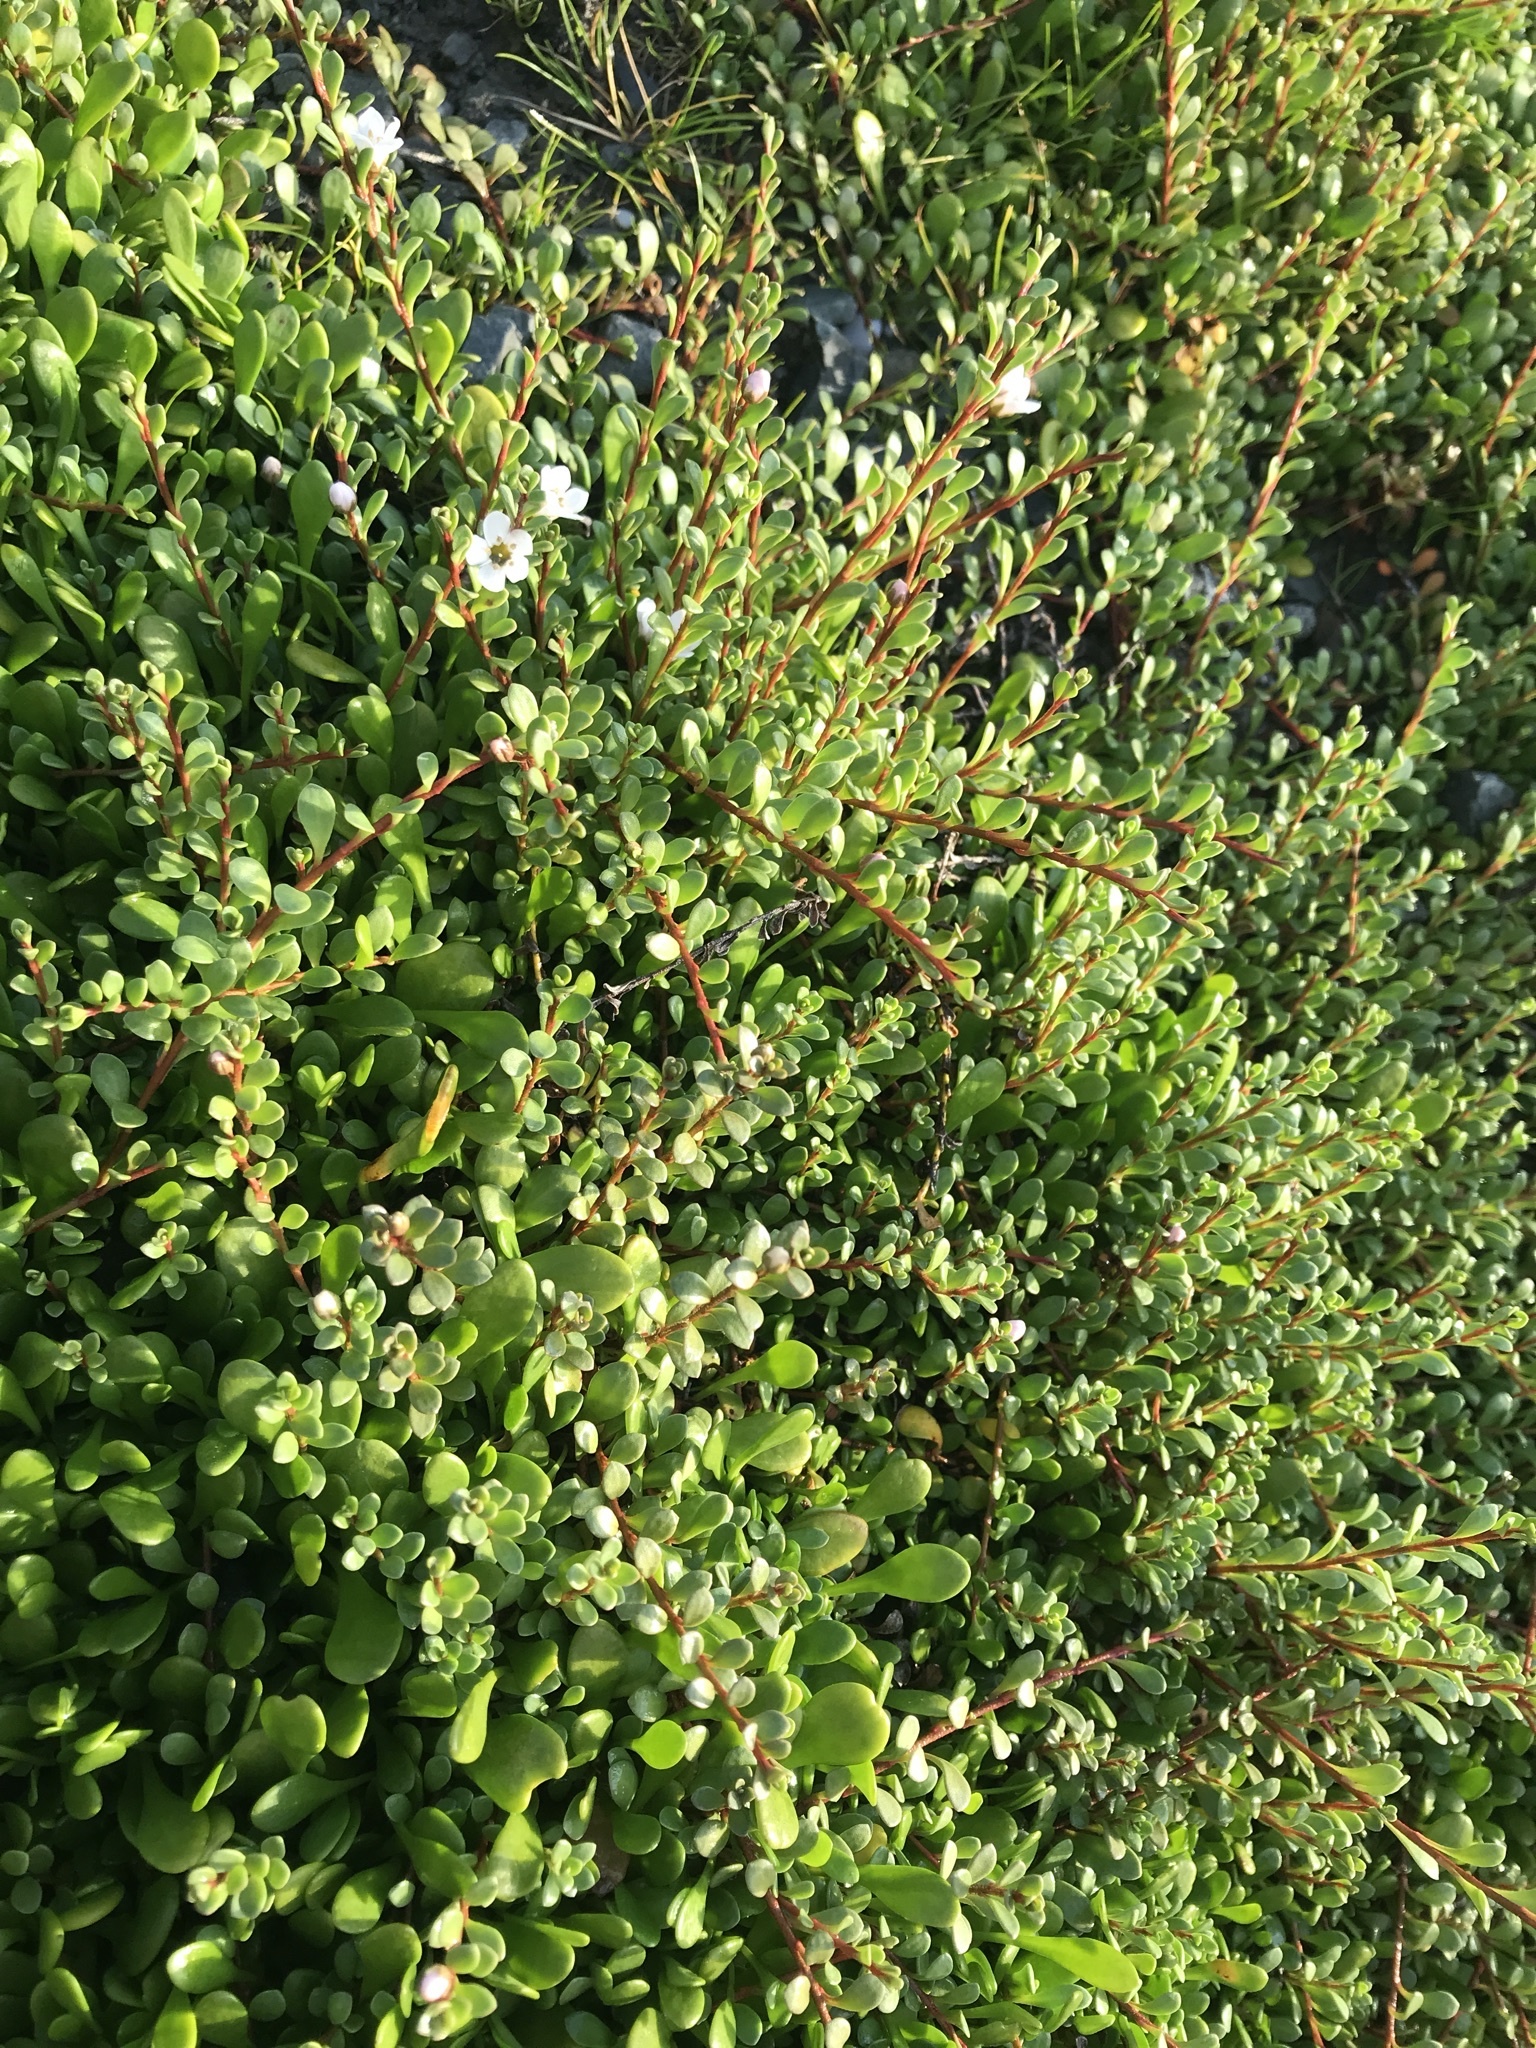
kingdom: Plantae
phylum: Tracheophyta
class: Magnoliopsida
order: Ericales
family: Primulaceae
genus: Samolus
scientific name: Samolus repens
